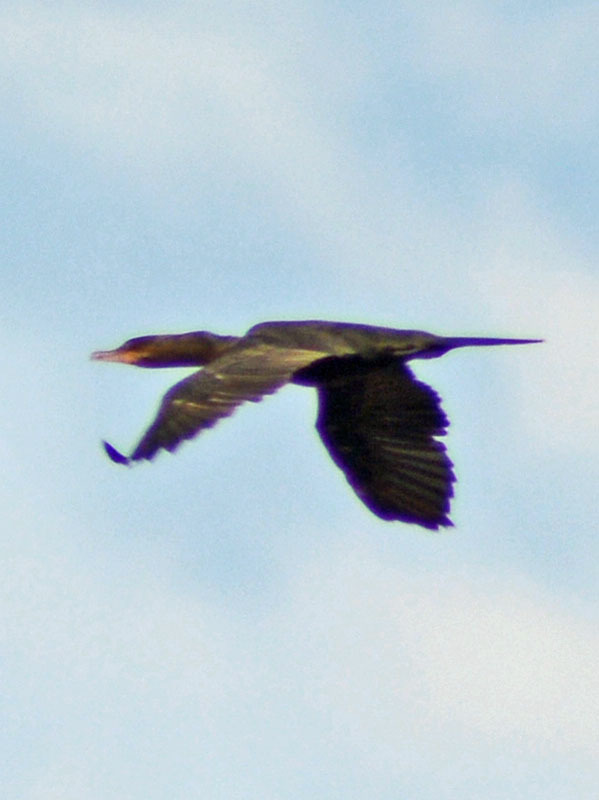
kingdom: Animalia
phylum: Chordata
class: Aves
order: Suliformes
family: Phalacrocoracidae
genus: Phalacrocorax
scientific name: Phalacrocorax brasilianus
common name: Neotropic cormorant
